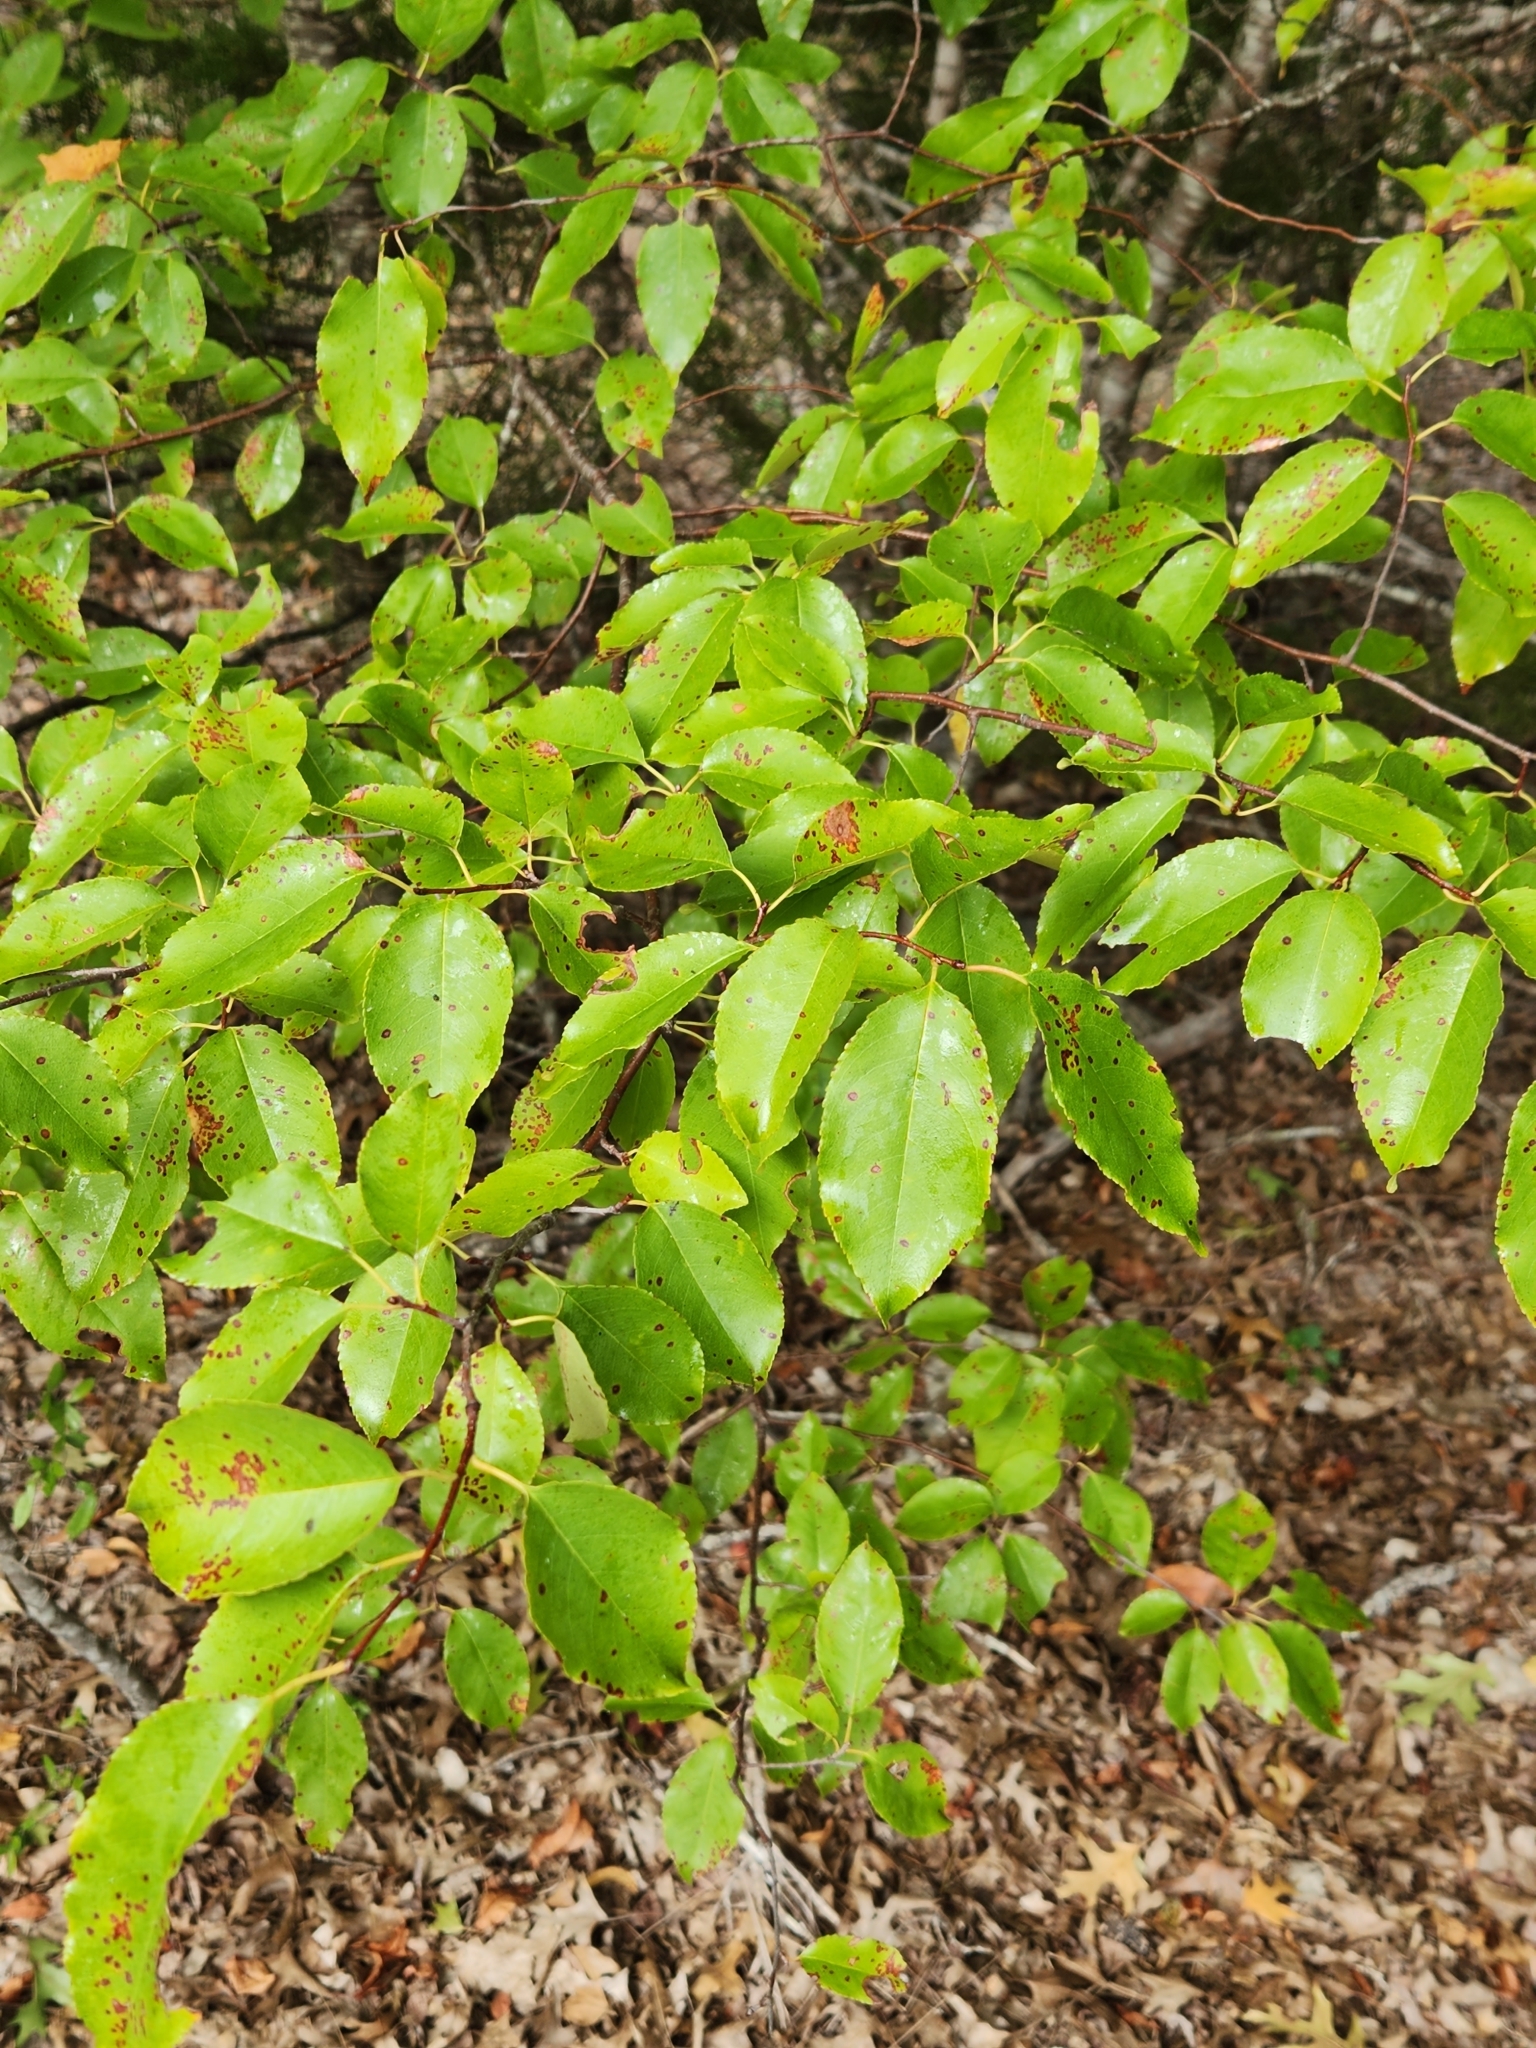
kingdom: Plantae
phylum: Tracheophyta
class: Magnoliopsida
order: Rosales
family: Rosaceae
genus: Prunus
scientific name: Prunus serotina
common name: Black cherry
